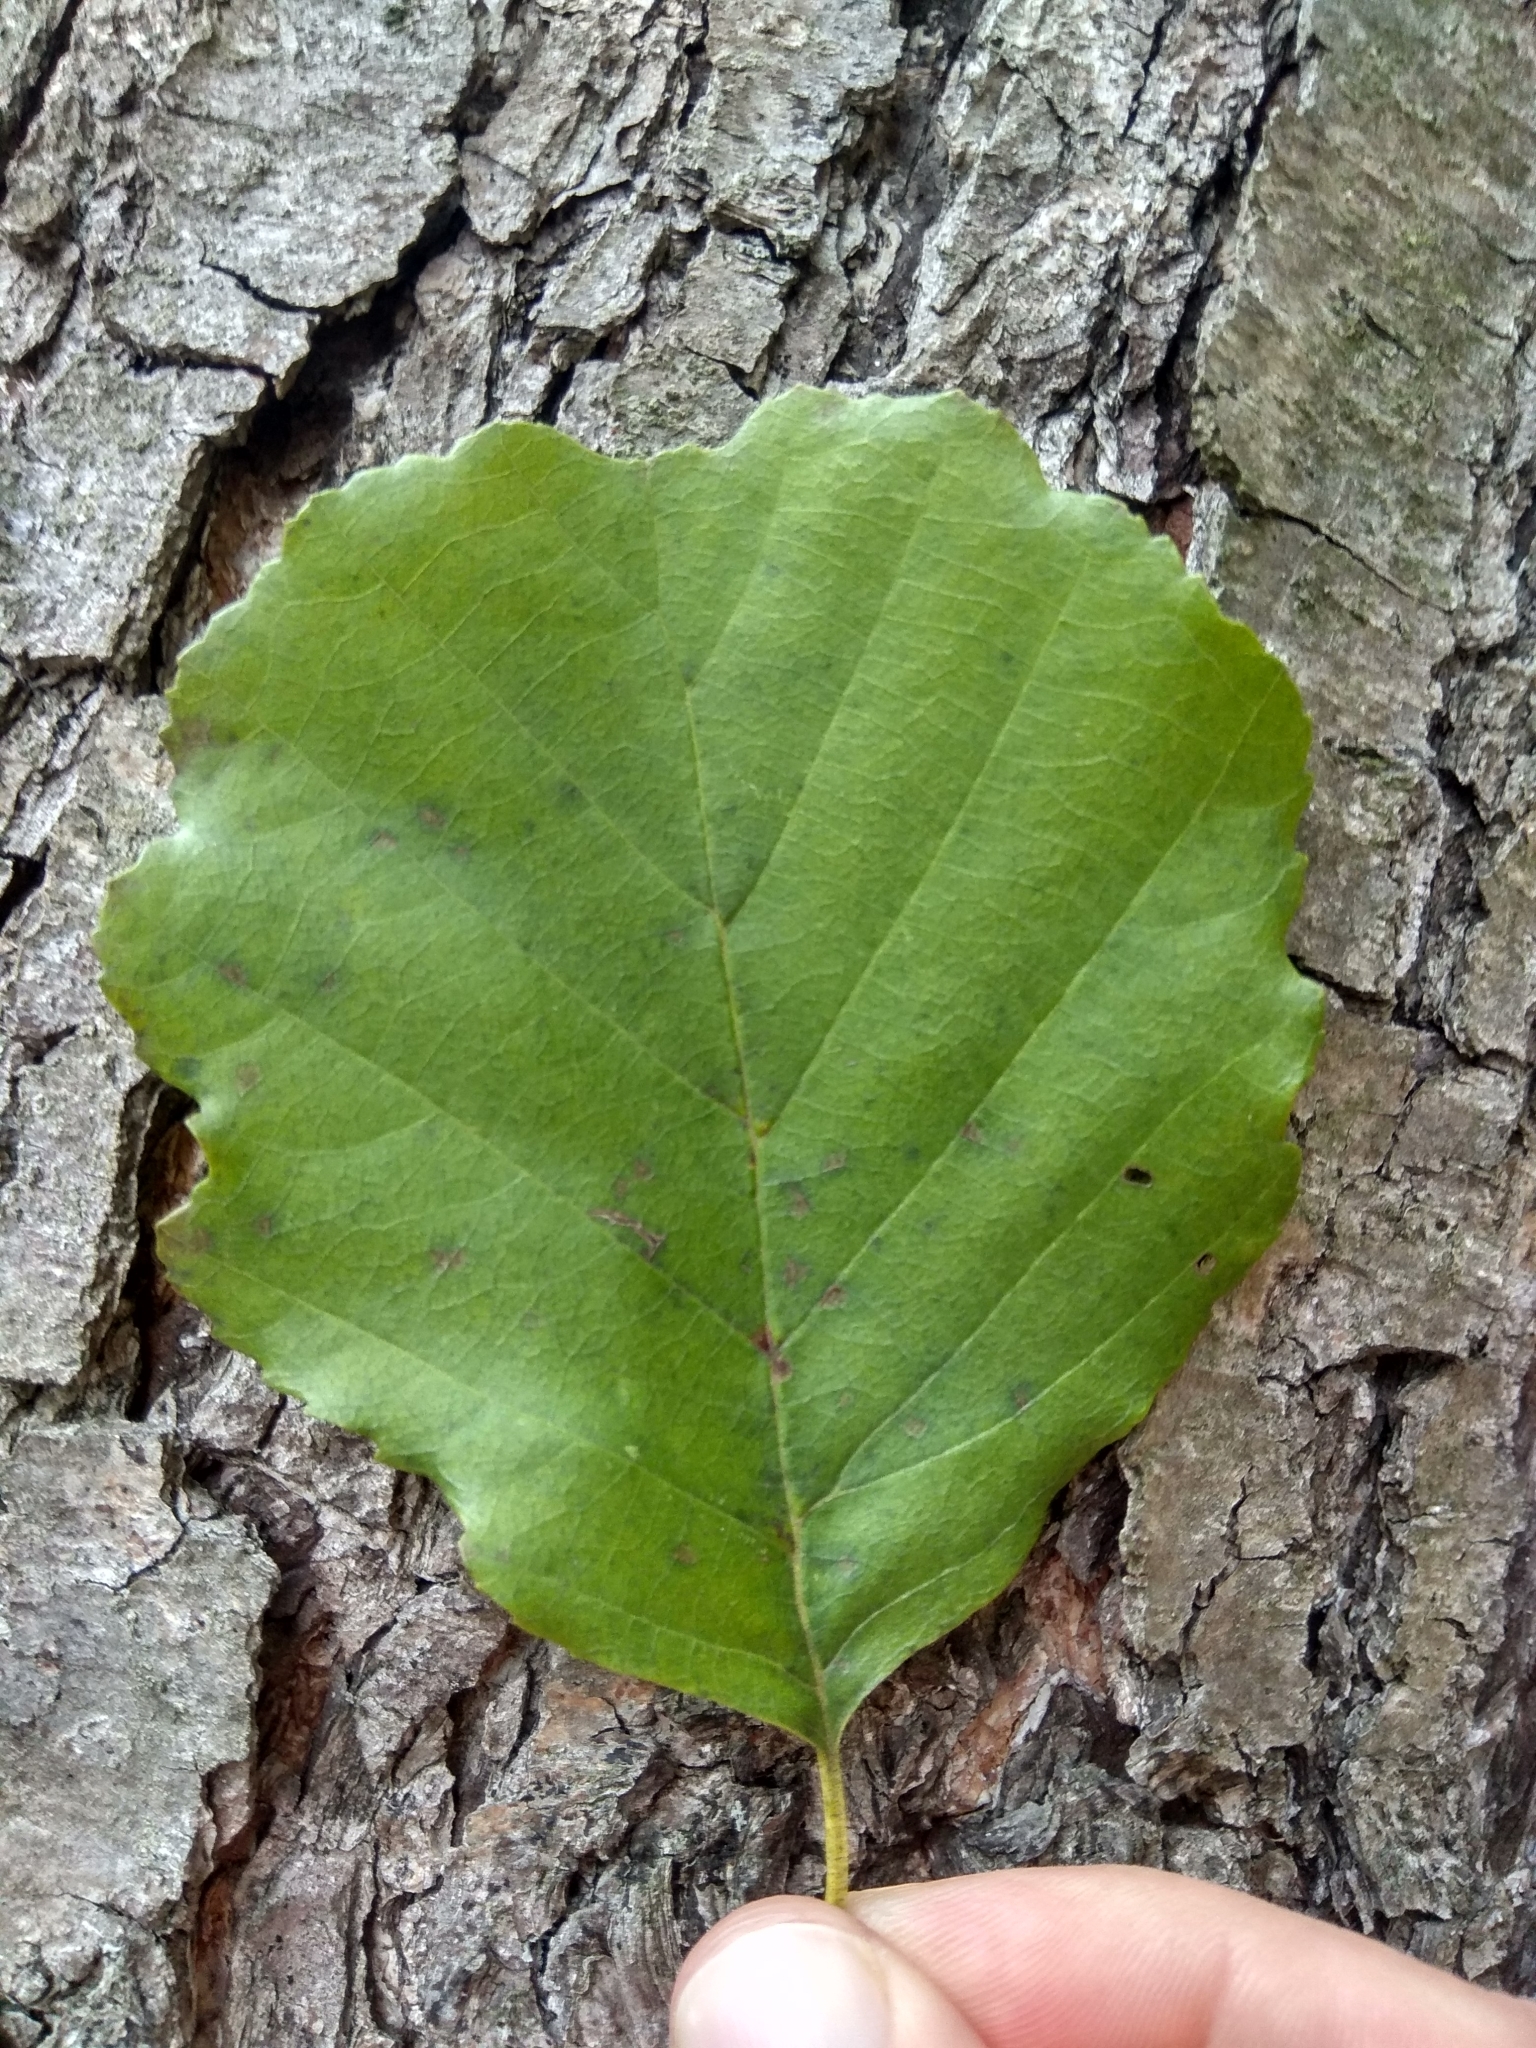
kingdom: Plantae
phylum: Tracheophyta
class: Magnoliopsida
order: Fagales
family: Betulaceae
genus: Alnus
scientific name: Alnus glutinosa
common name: Black alder
